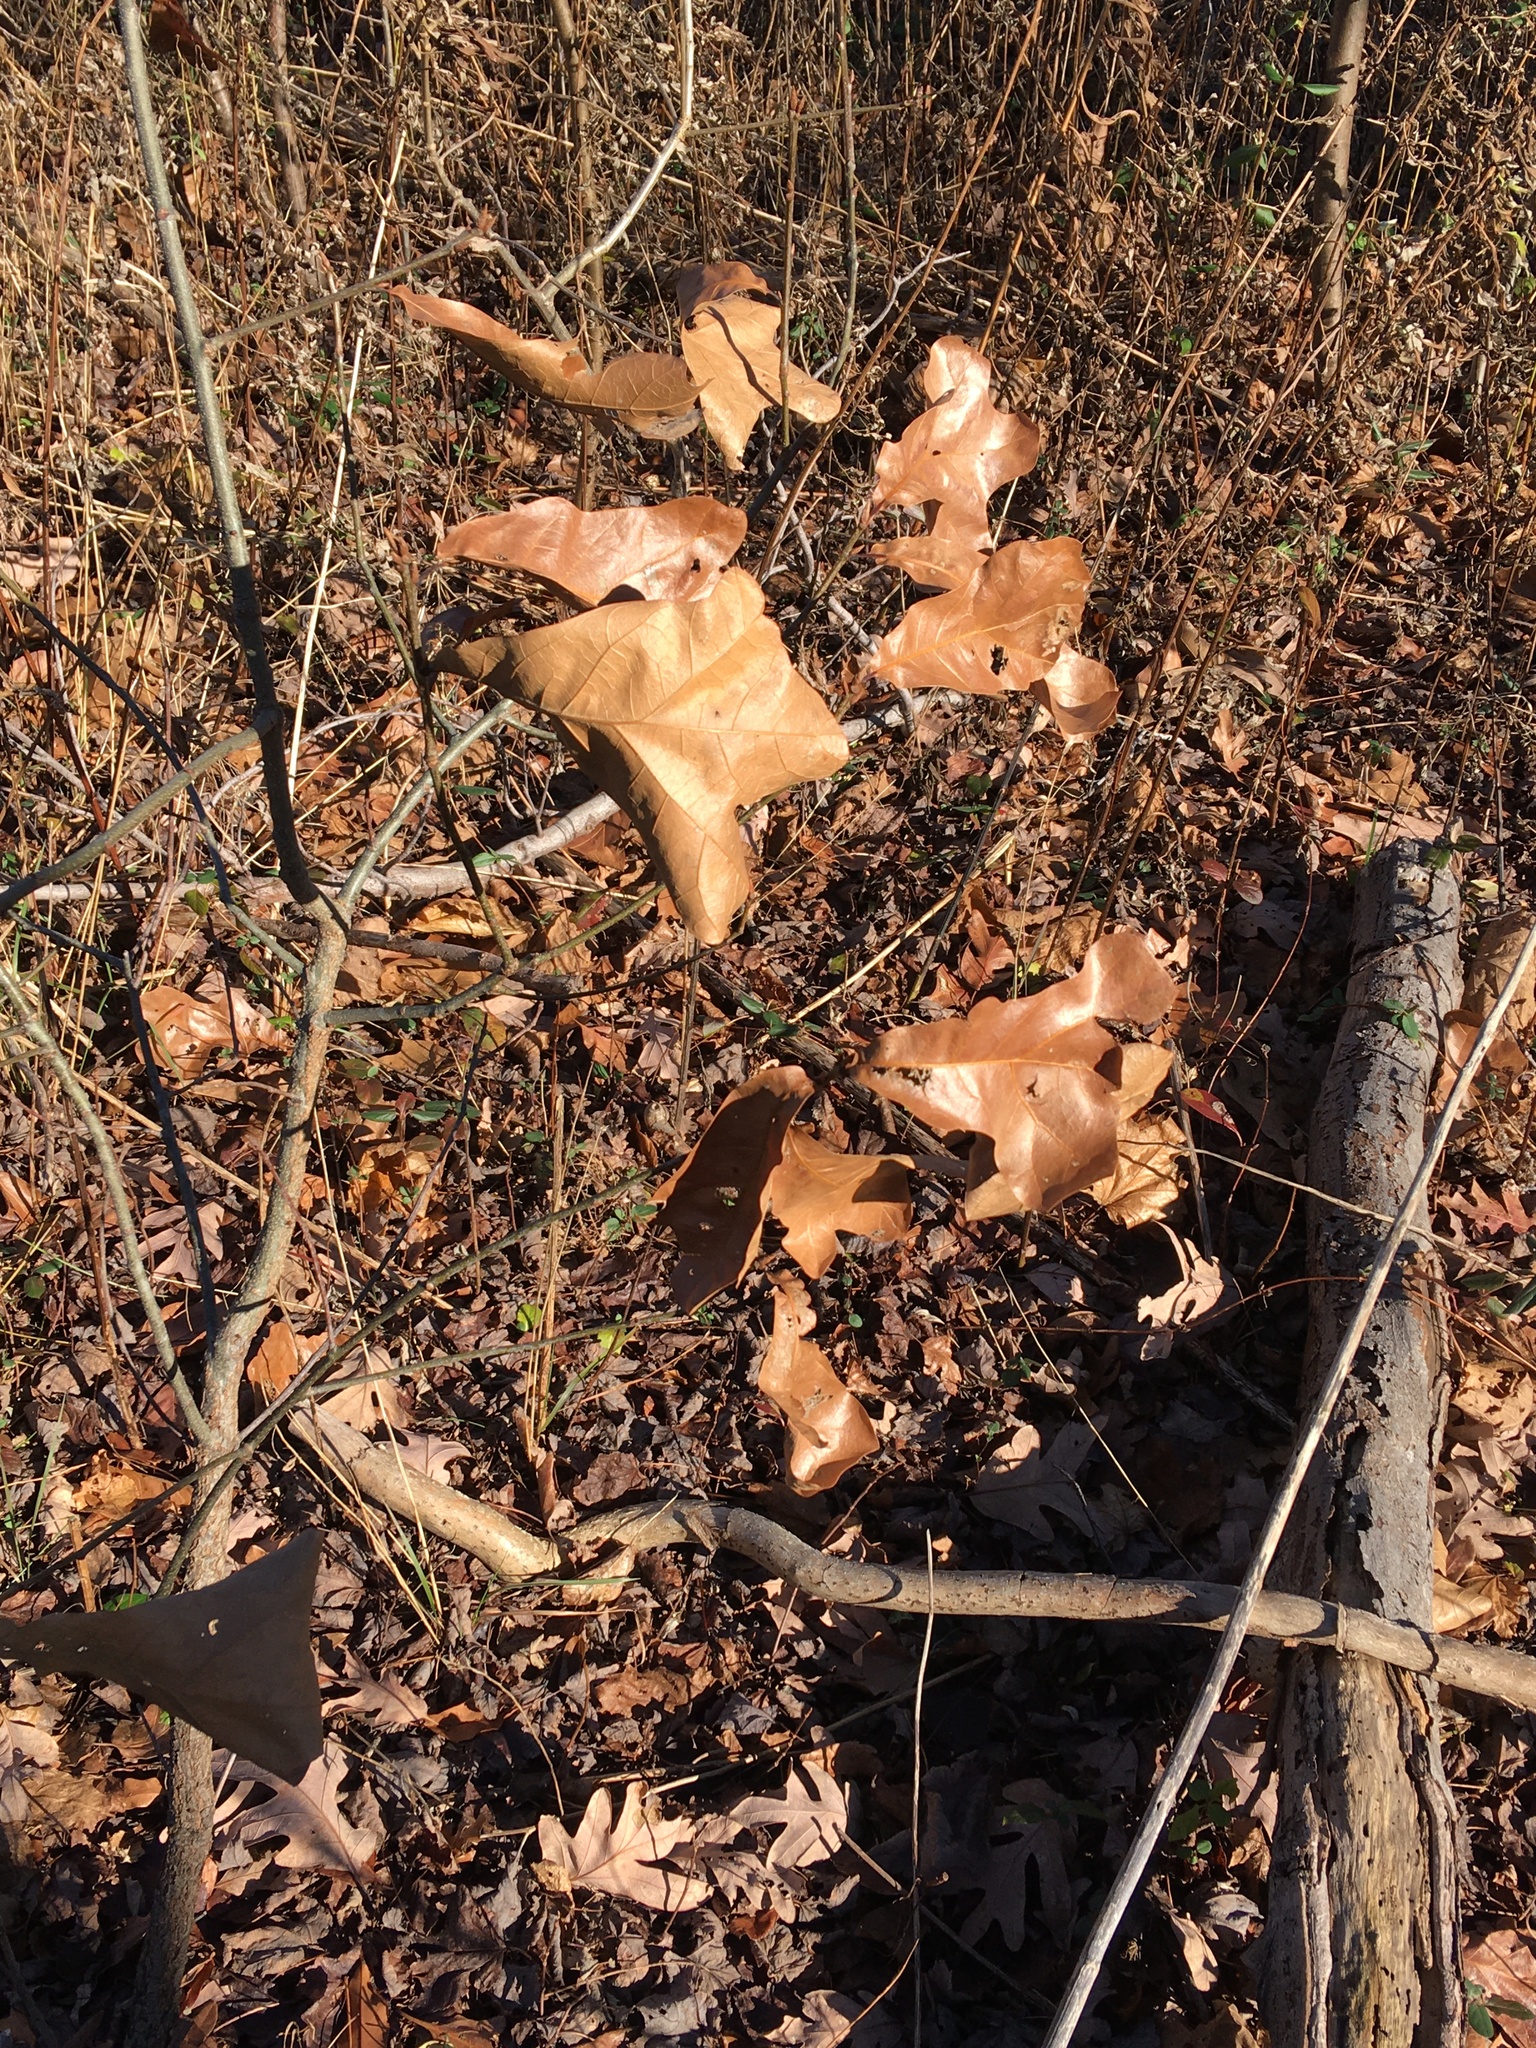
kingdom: Plantae
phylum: Tracheophyta
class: Magnoliopsida
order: Fagales
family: Fagaceae
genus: Quercus
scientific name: Quercus marilandica
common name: Blackjack oak
